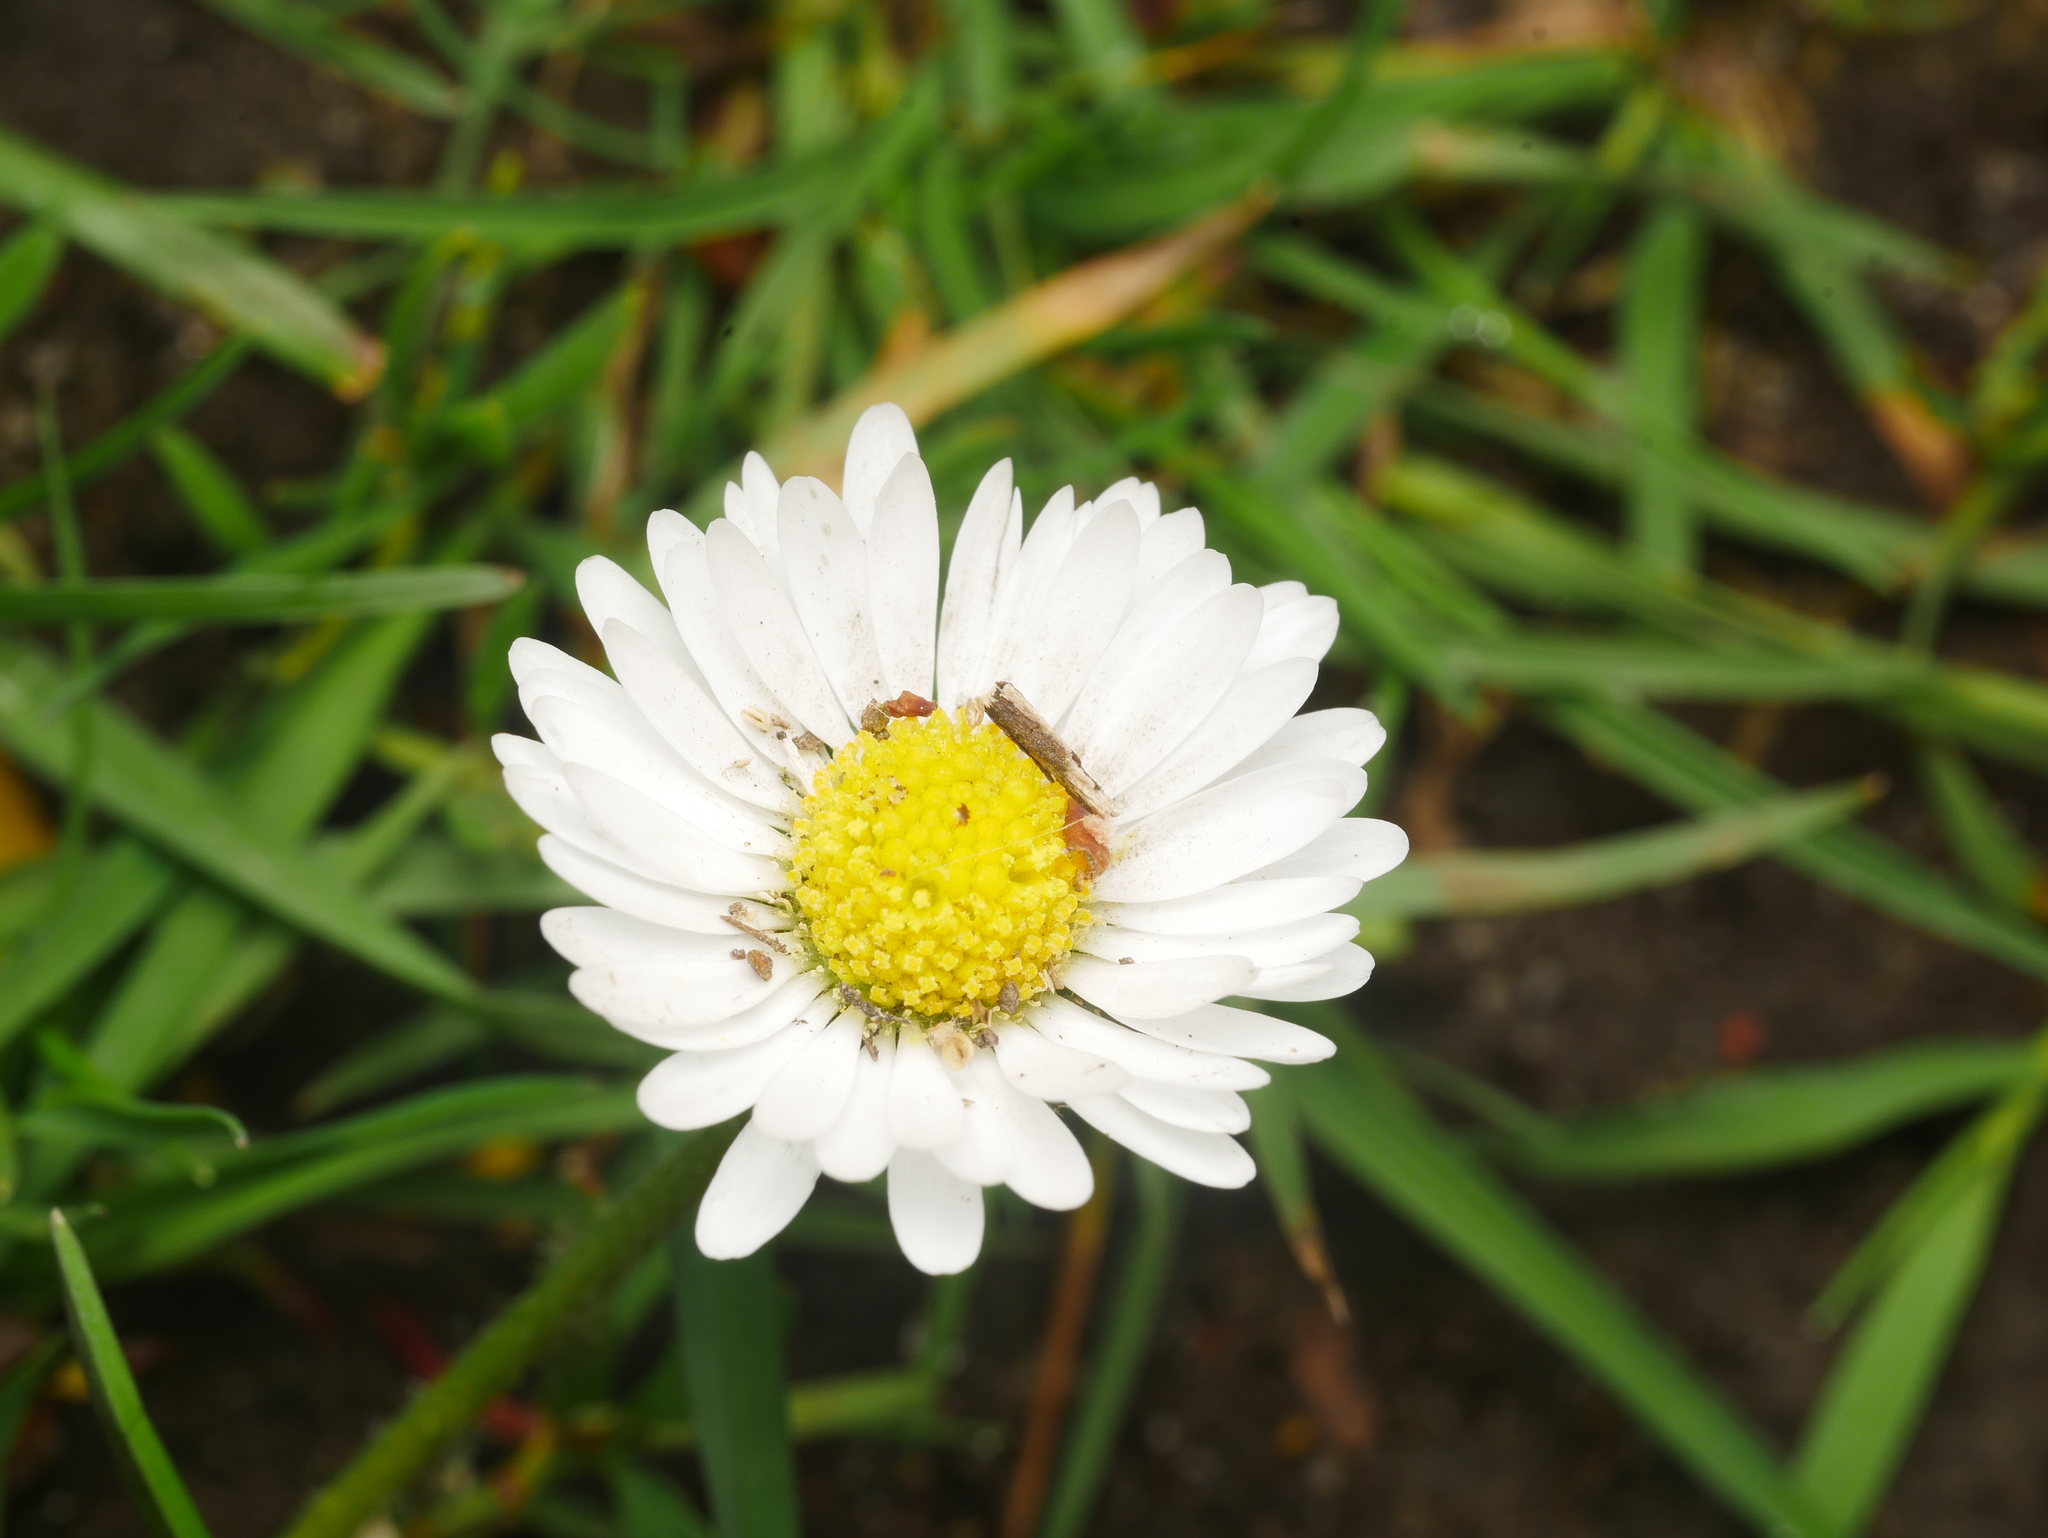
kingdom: Plantae
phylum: Tracheophyta
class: Magnoliopsida
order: Asterales
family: Asteraceae
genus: Bellis
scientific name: Bellis perennis
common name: Lawndaisy
